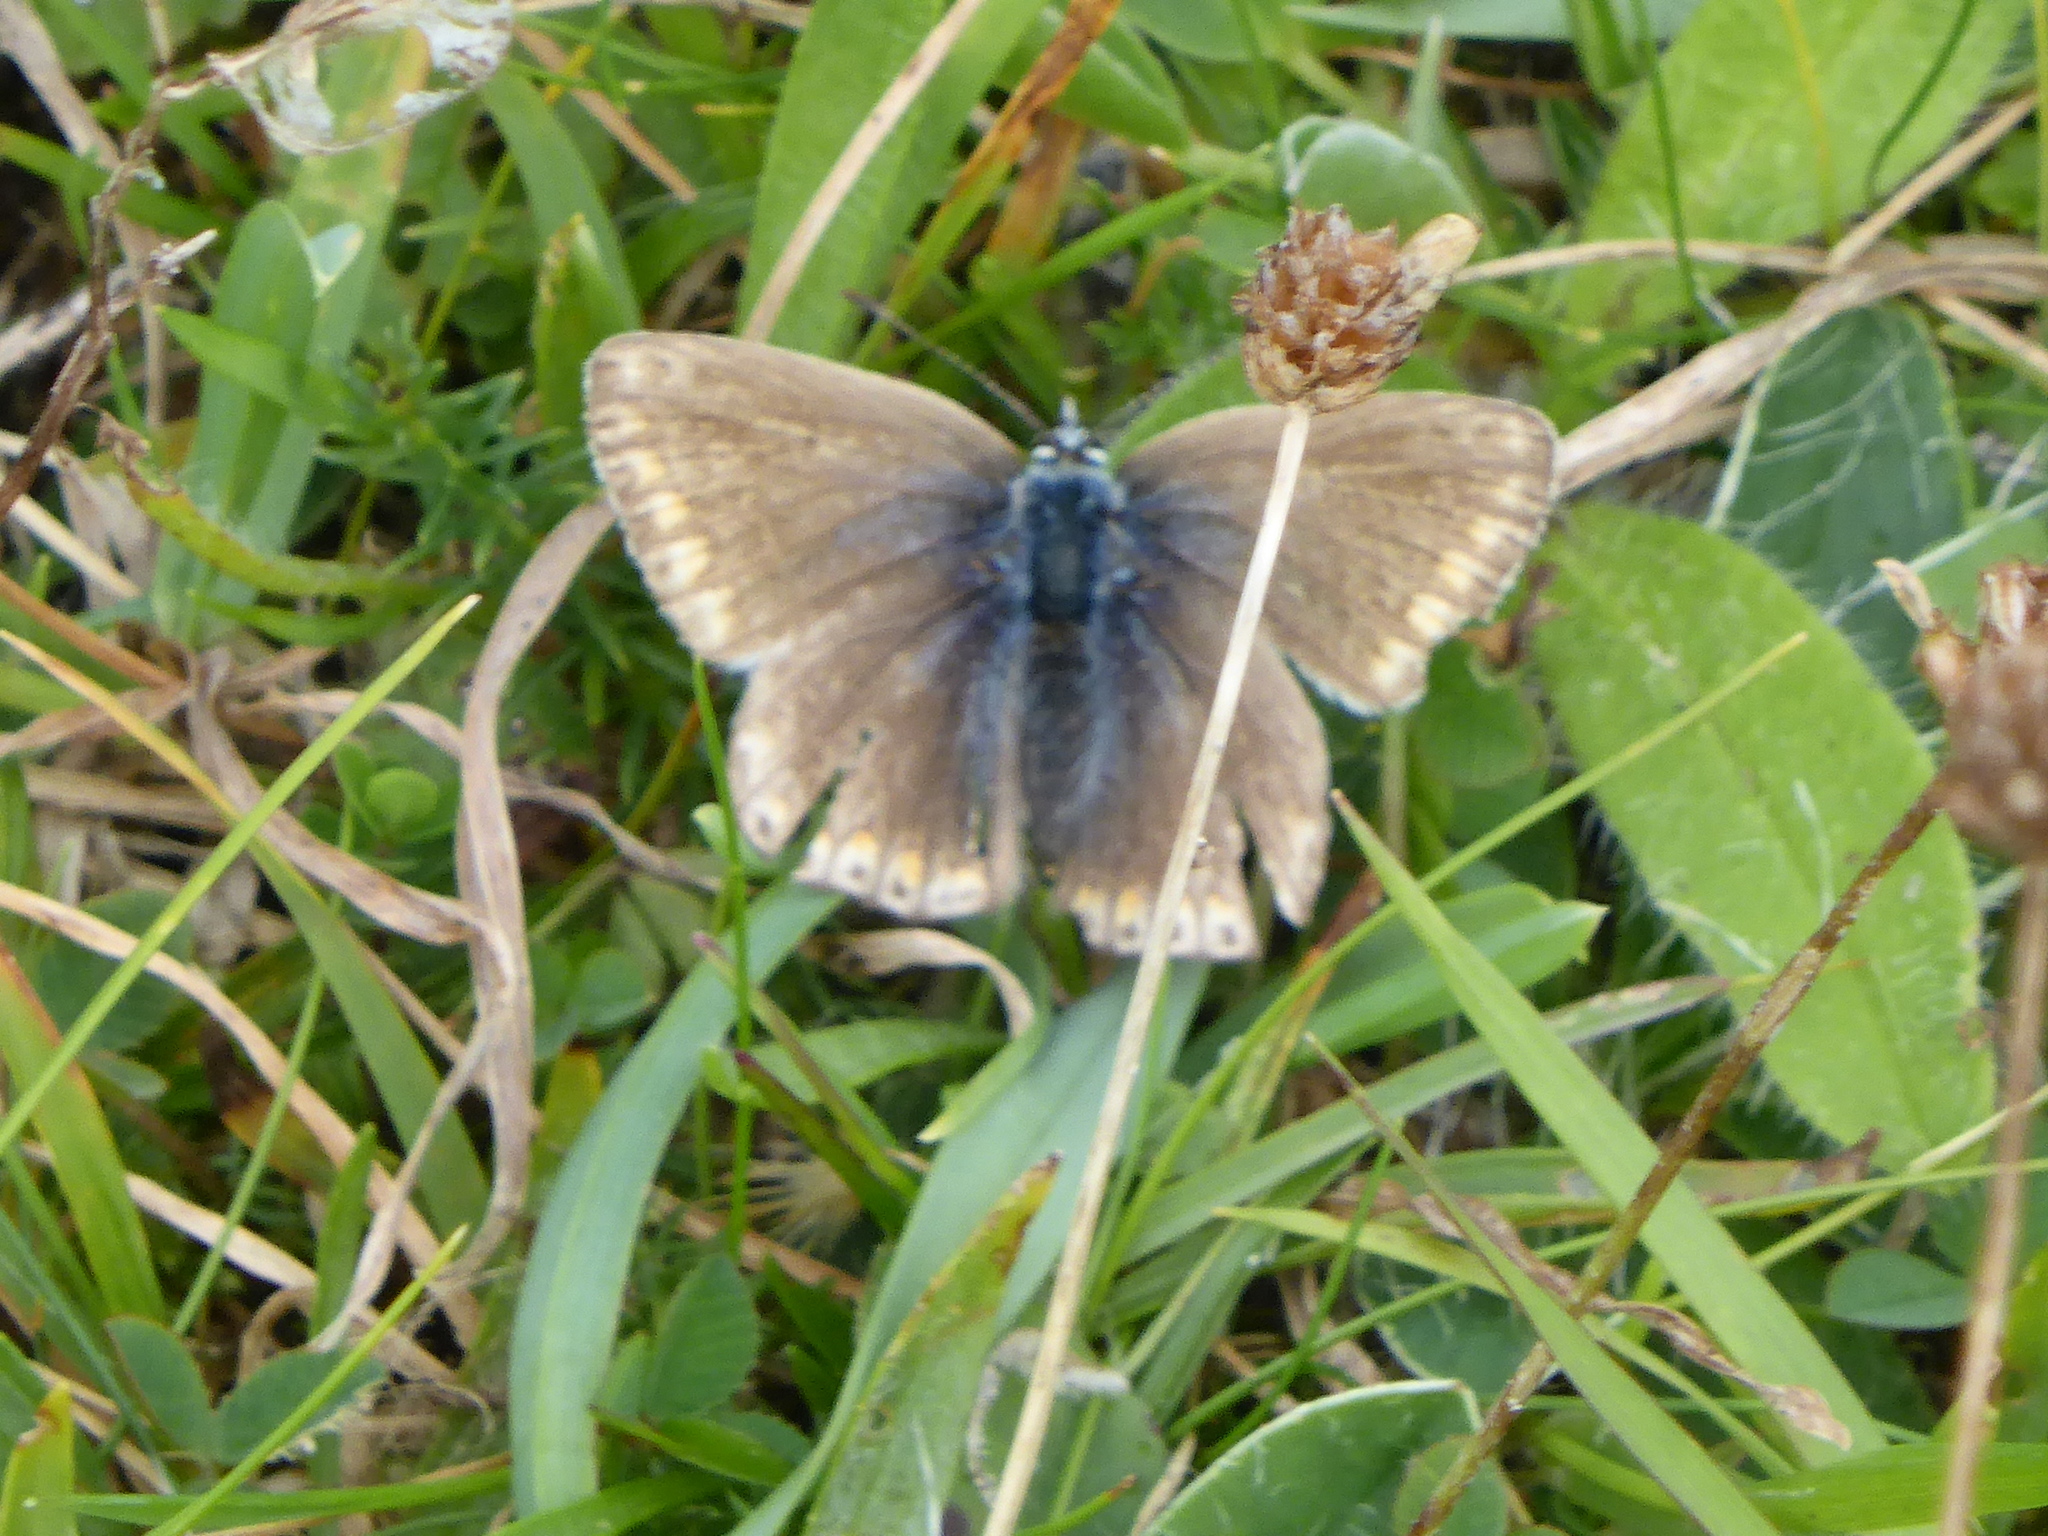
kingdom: Animalia
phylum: Arthropoda
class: Insecta
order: Lepidoptera
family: Lycaenidae
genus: Polyommatus
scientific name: Polyommatus icarus
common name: Common blue
